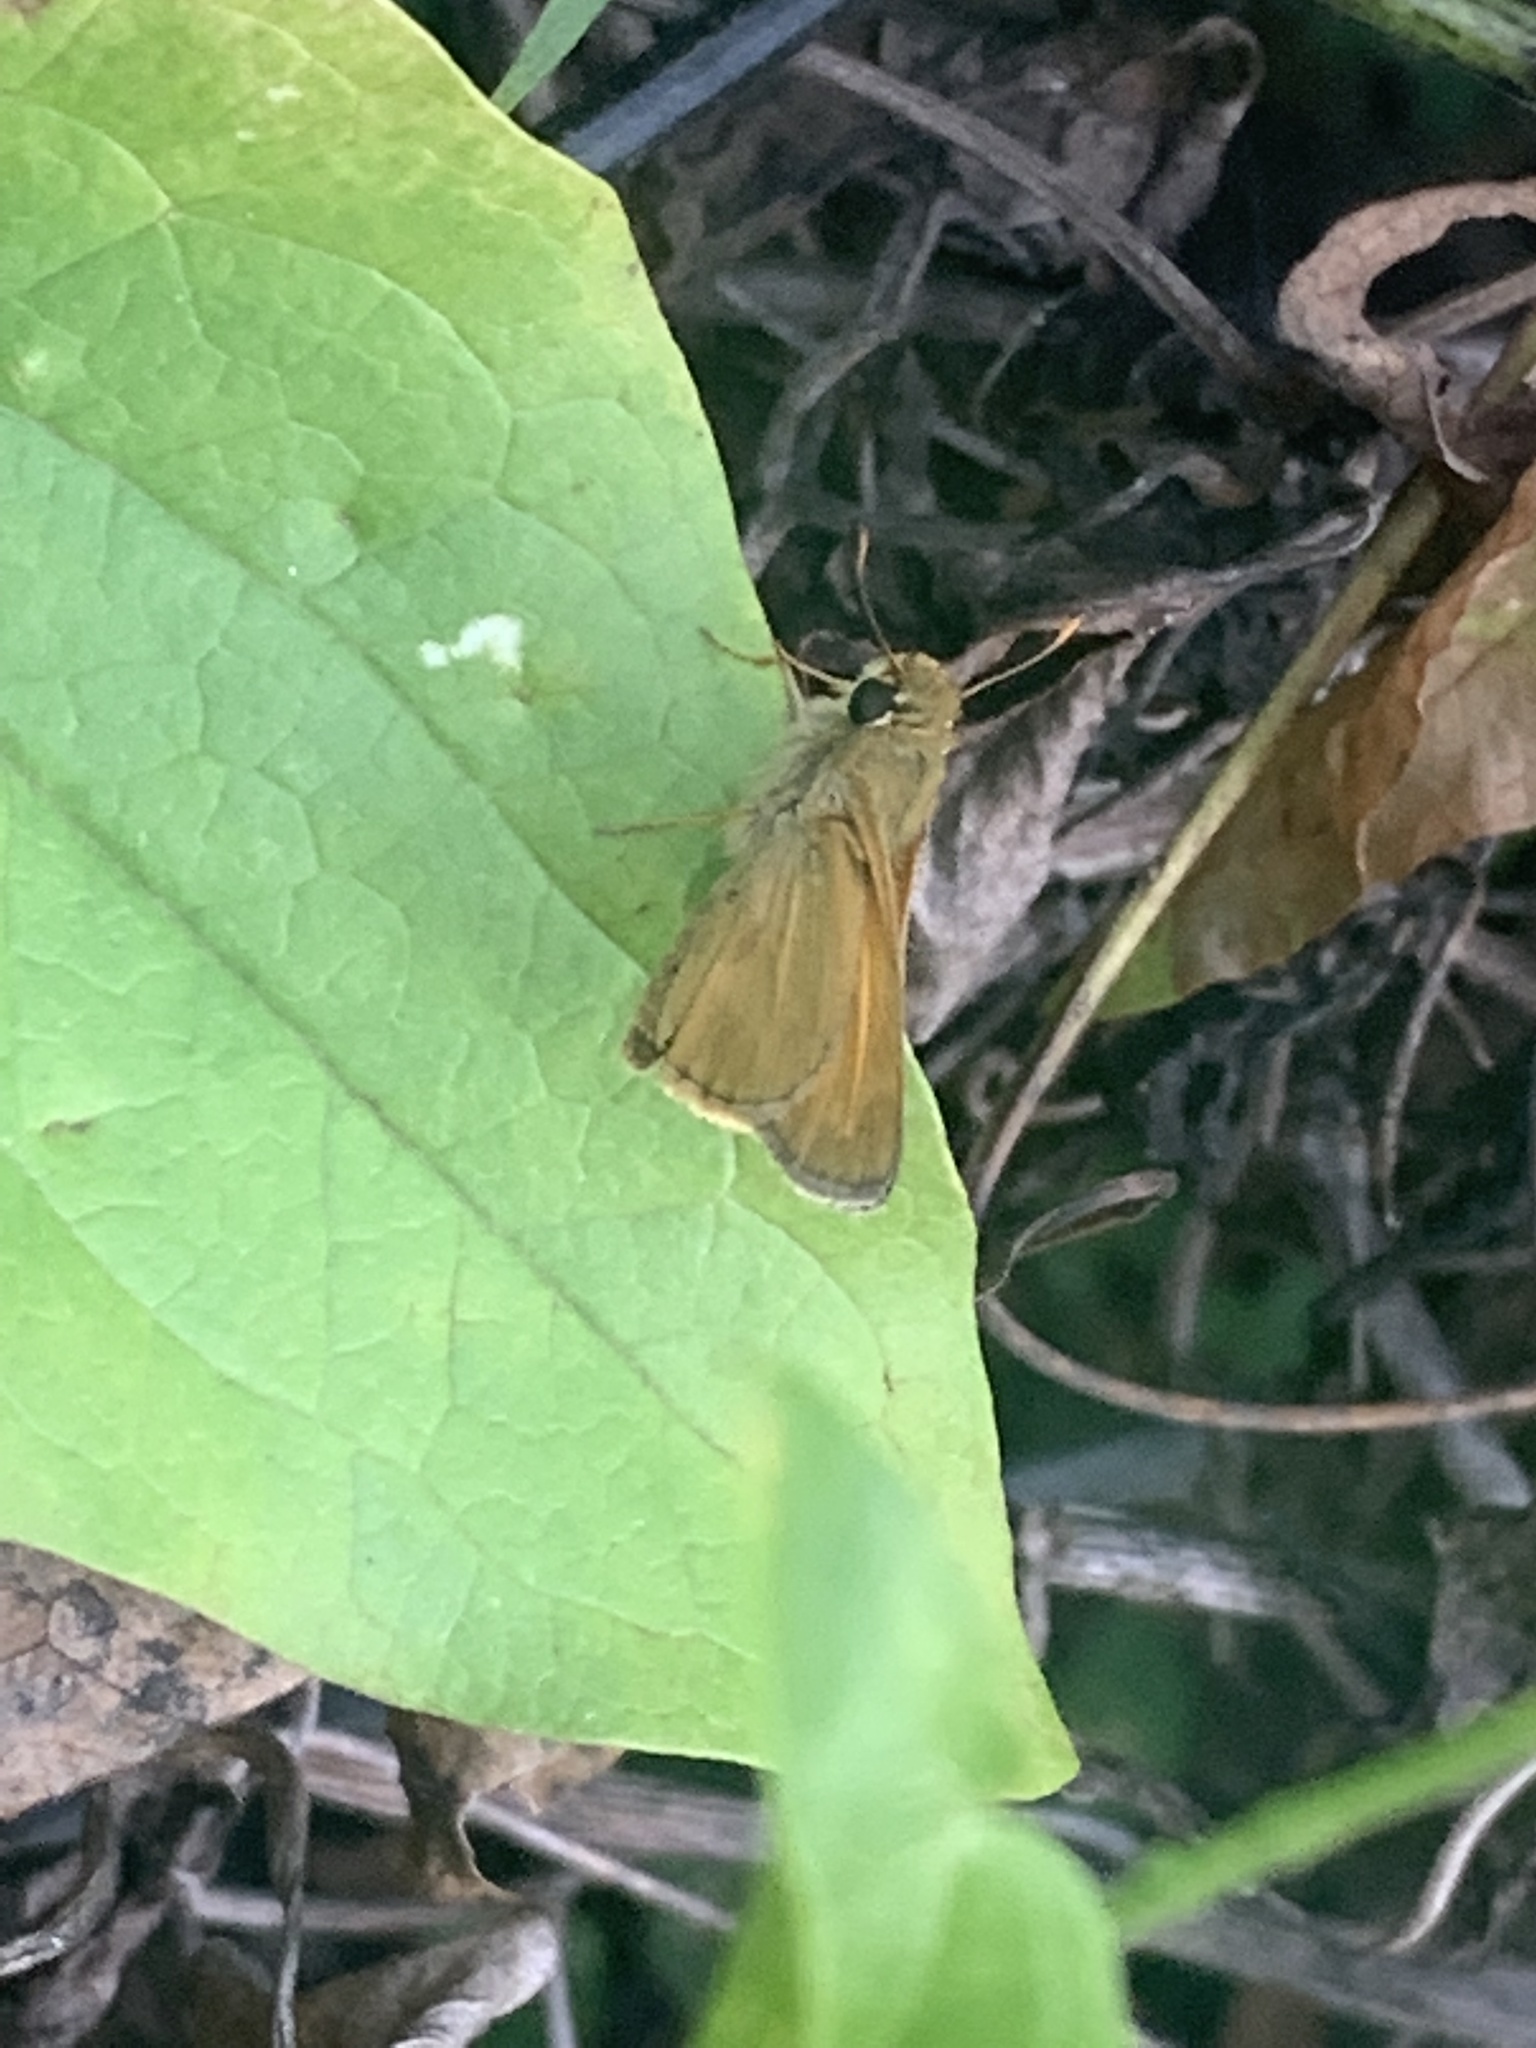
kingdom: Animalia
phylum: Arthropoda
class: Insecta
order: Lepidoptera
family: Hesperiidae
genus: Atalopedes
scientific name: Atalopedes
